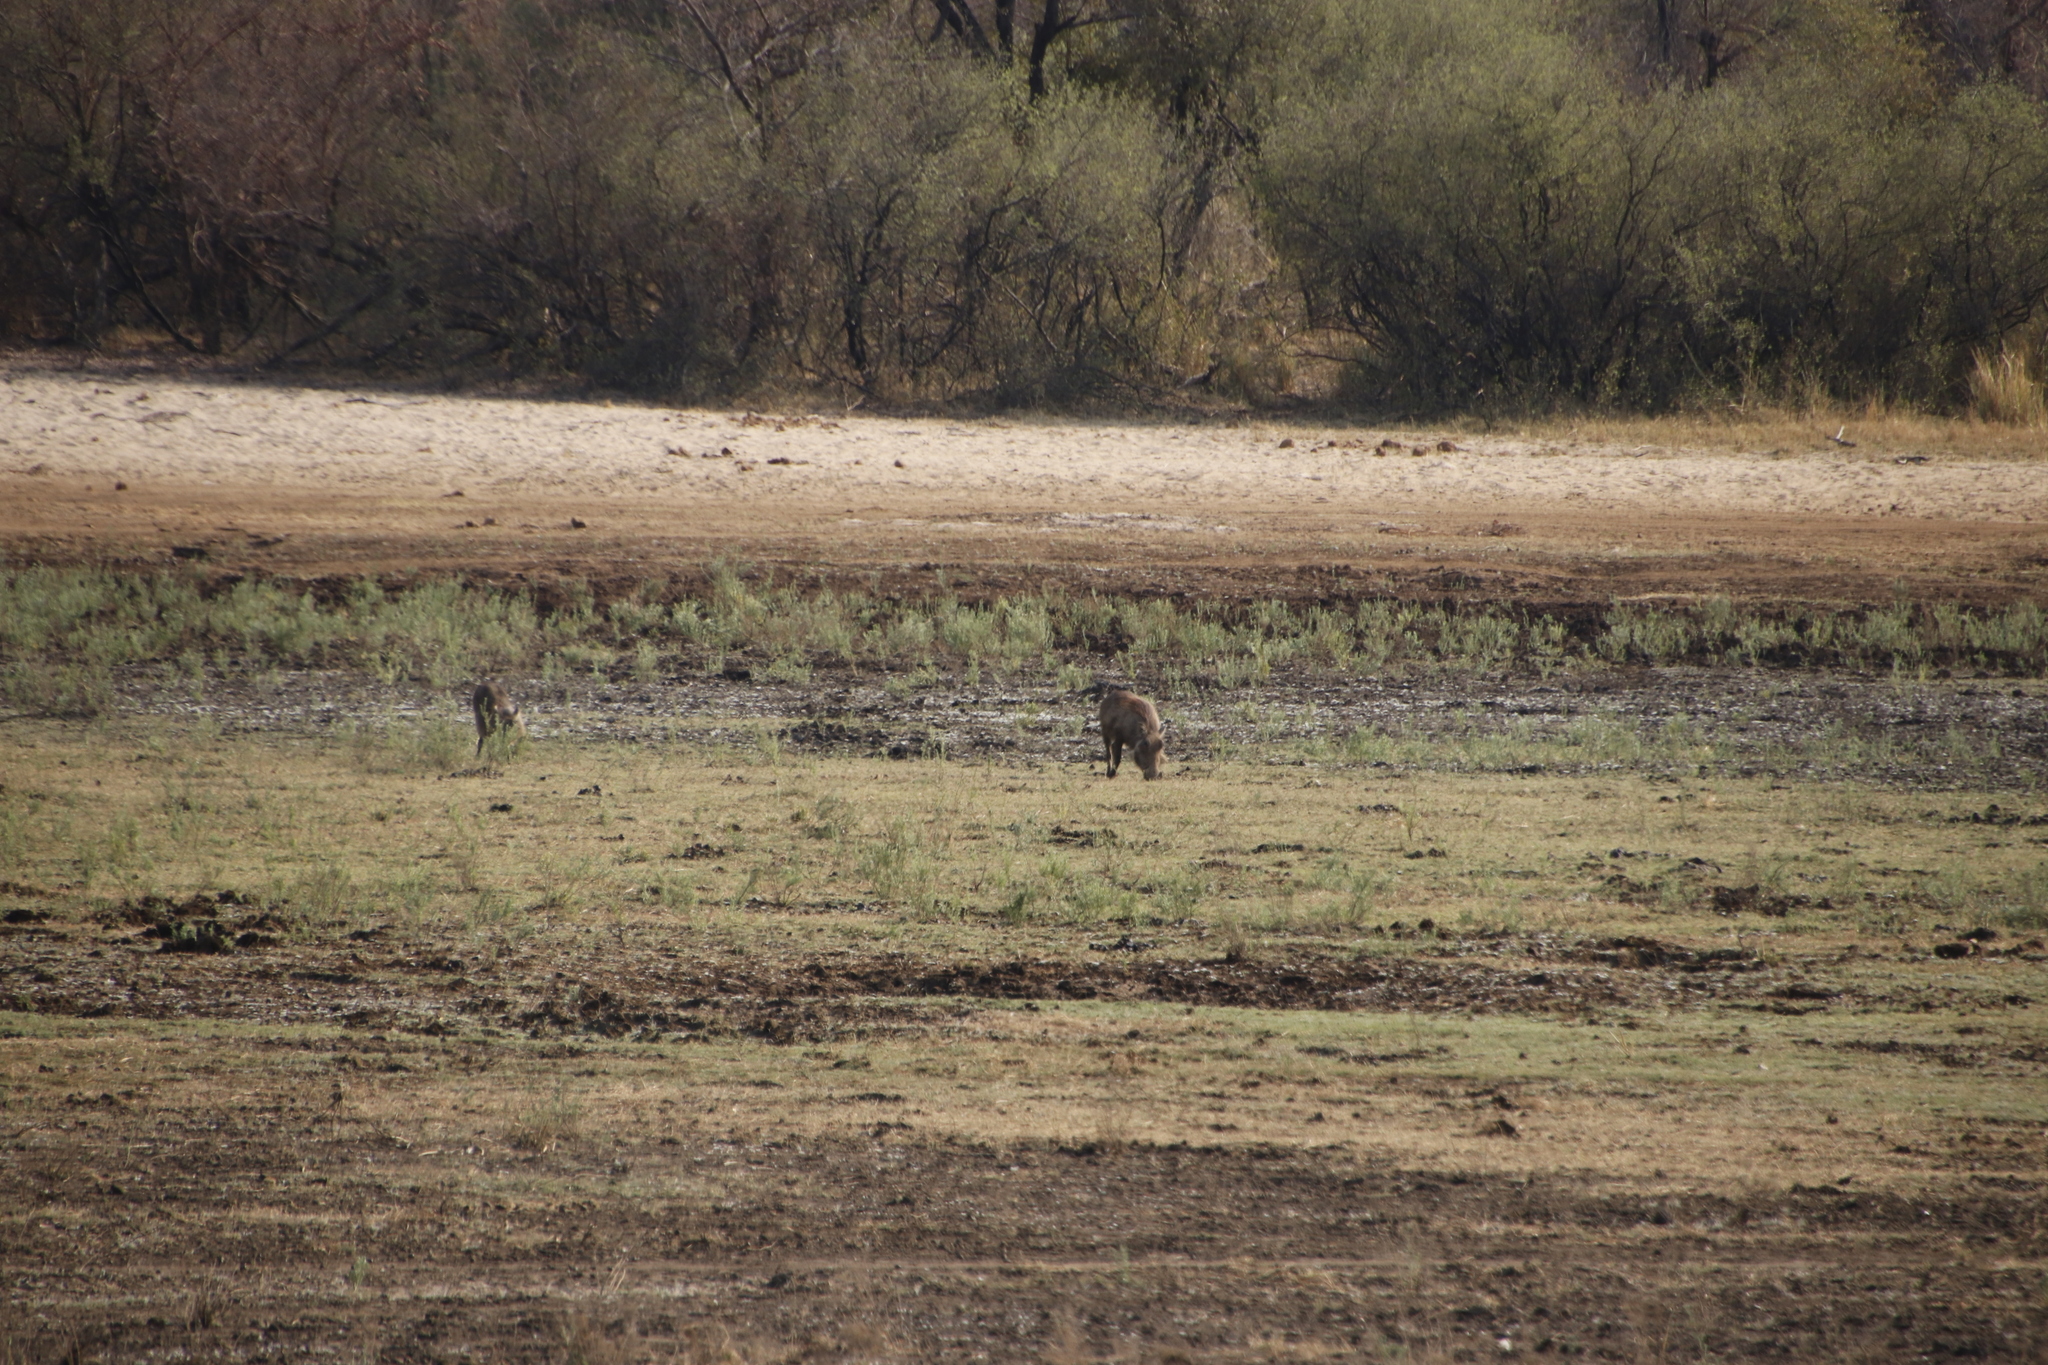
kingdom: Animalia
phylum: Chordata
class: Mammalia
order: Artiodactyla
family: Suidae
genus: Phacochoerus
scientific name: Phacochoerus africanus
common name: Common warthog
